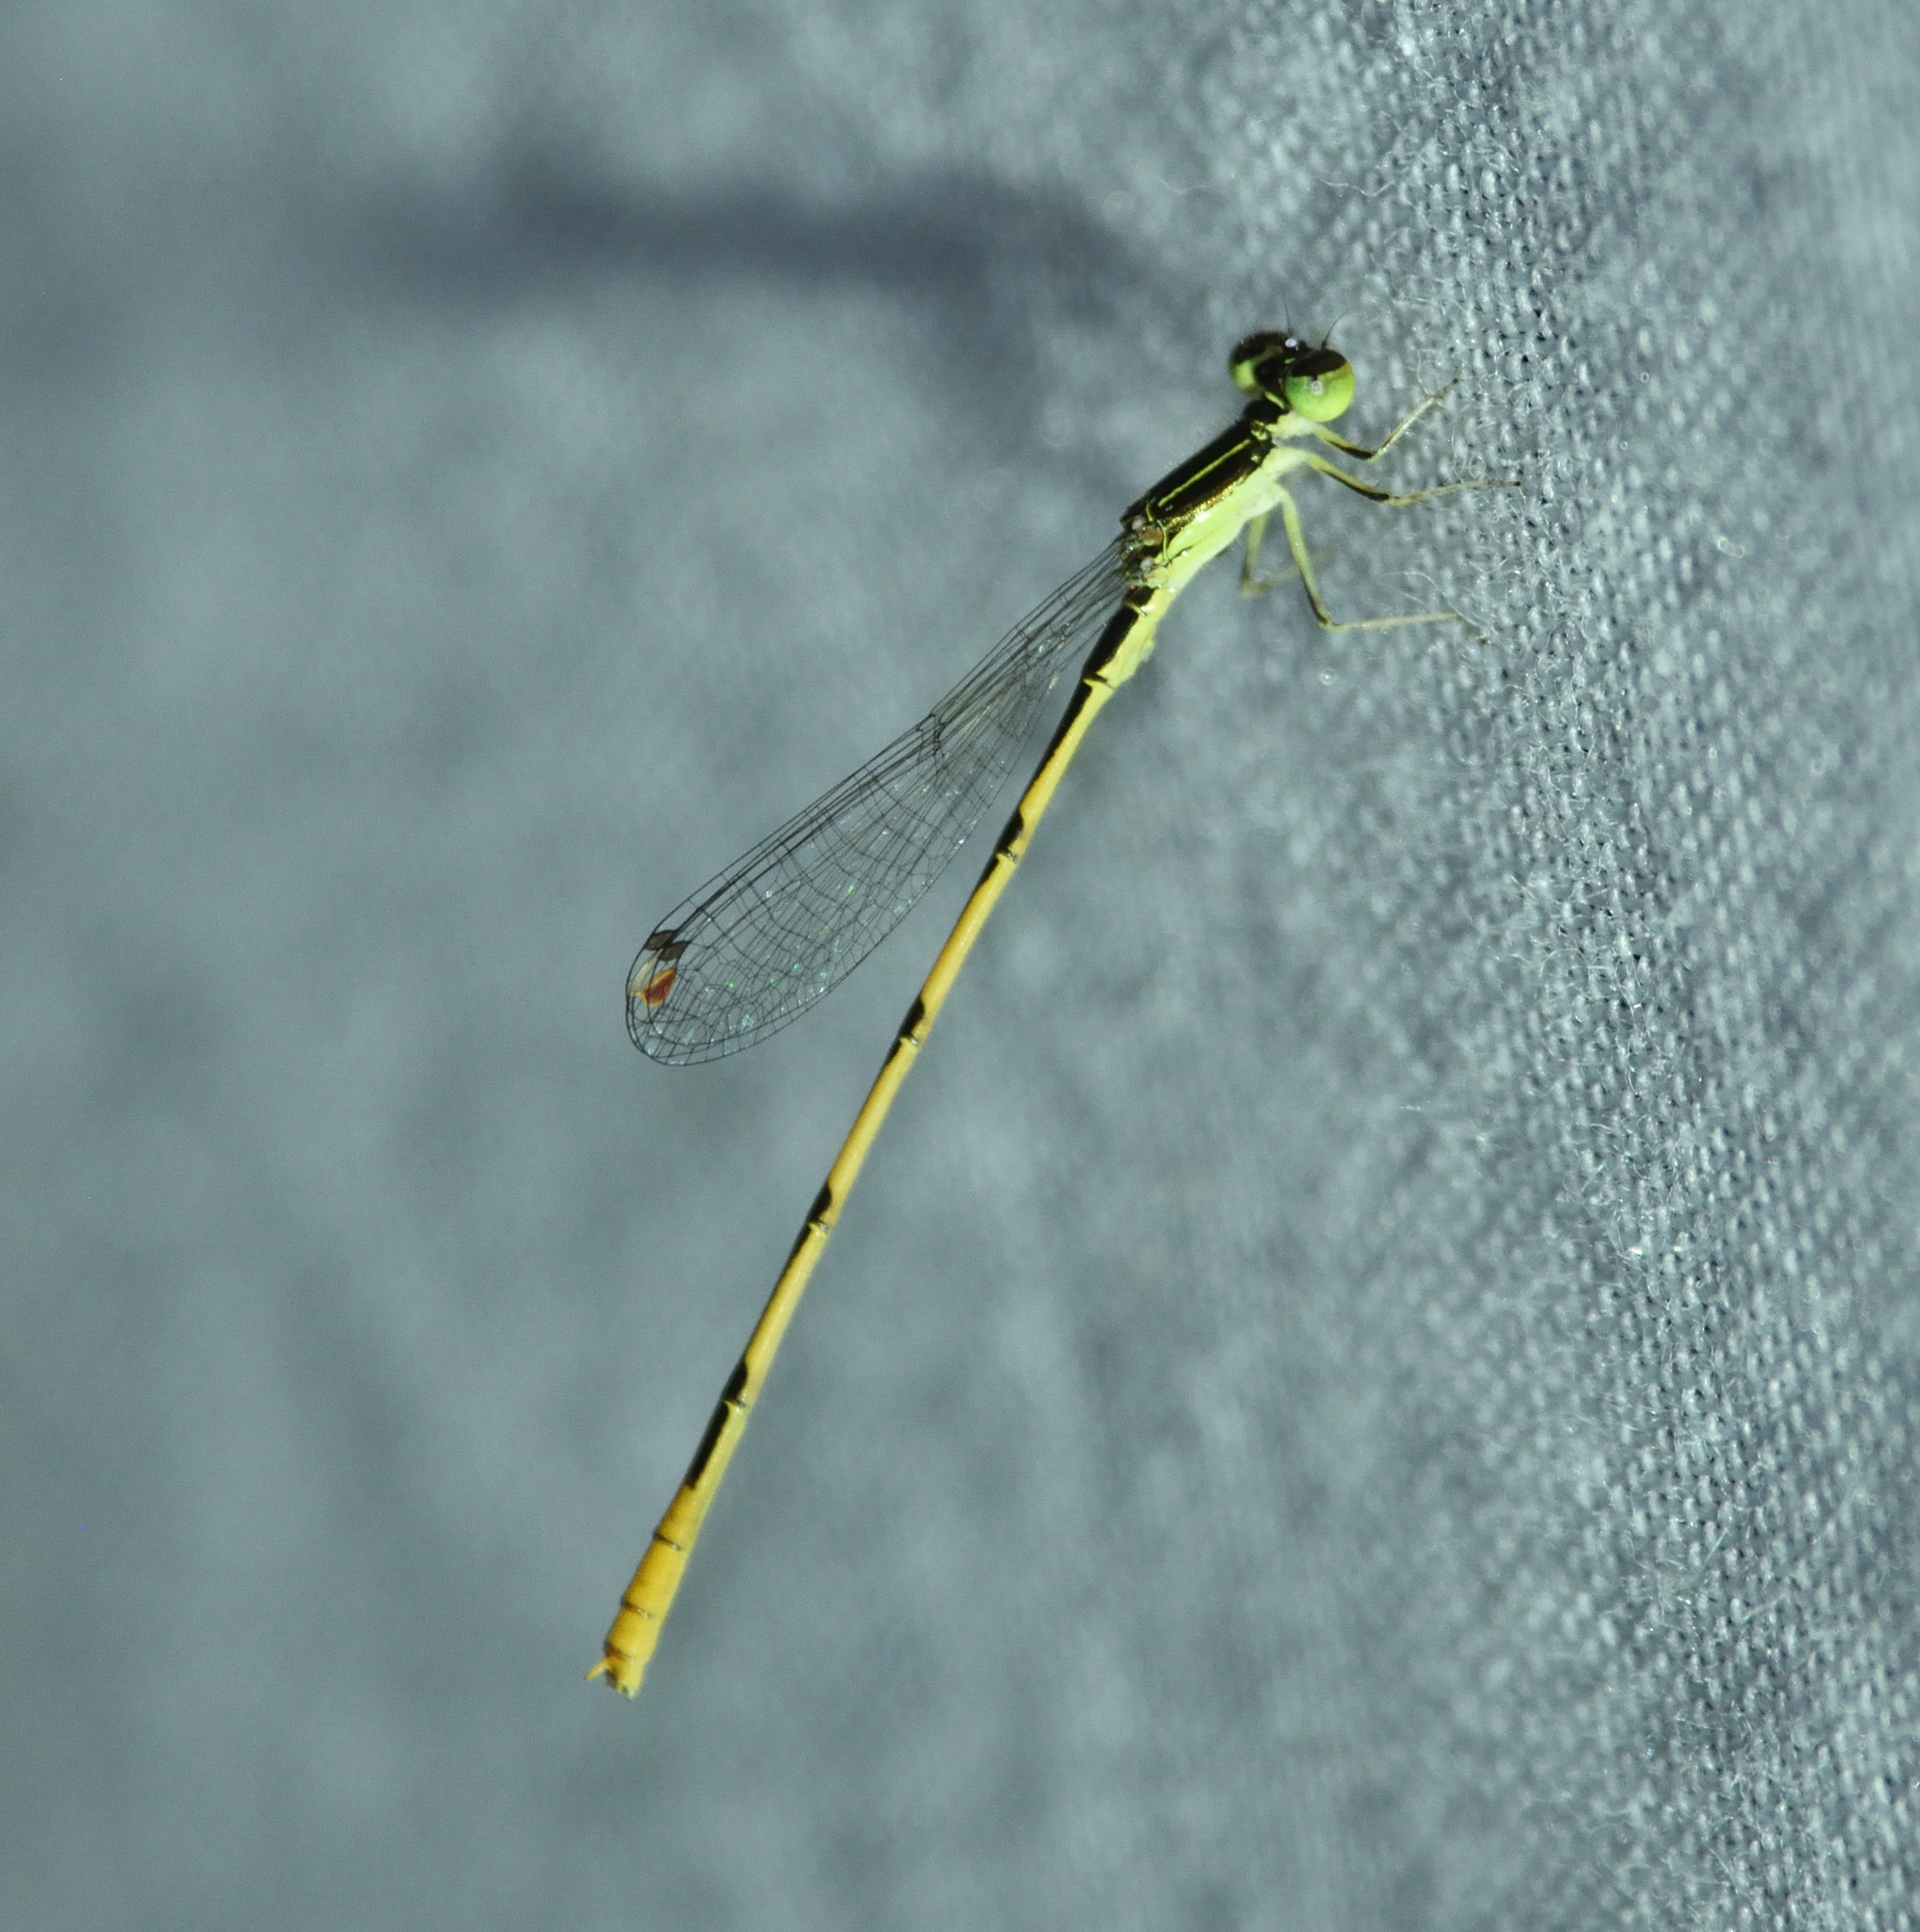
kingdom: Animalia
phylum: Arthropoda
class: Insecta
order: Odonata
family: Coenagrionidae
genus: Ischnura
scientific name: Ischnura hastata
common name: Citrine forktail
